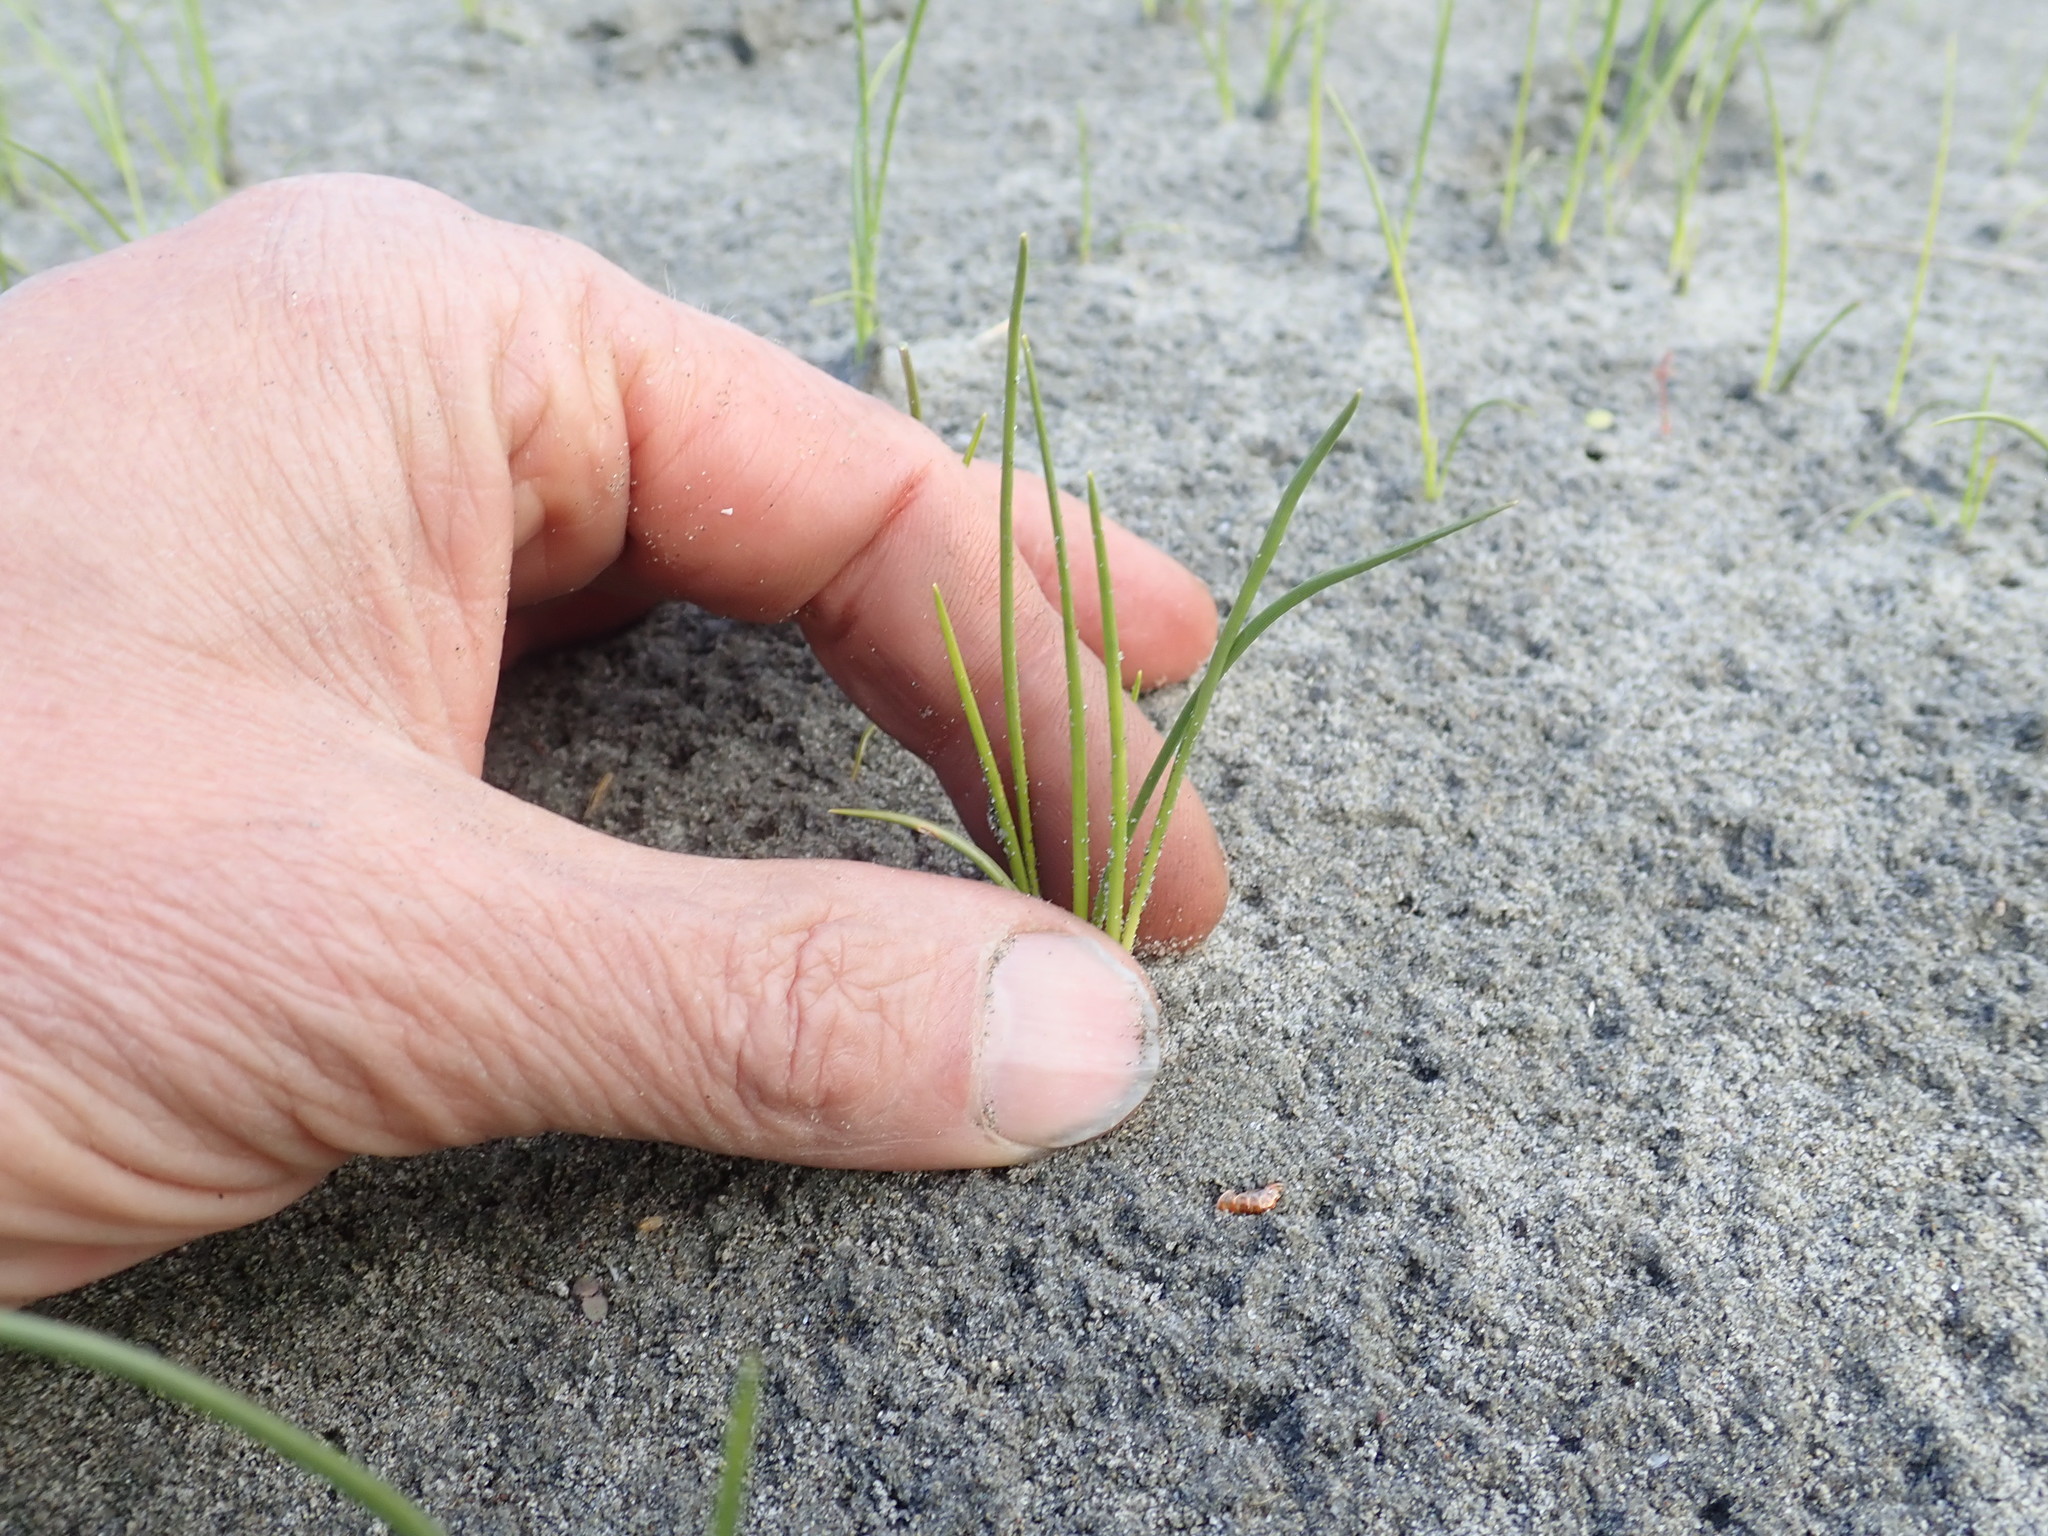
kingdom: Plantae
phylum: Tracheophyta
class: Liliopsida
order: Poales
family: Cyperaceae
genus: Ficinia
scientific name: Ficinia nodosa
